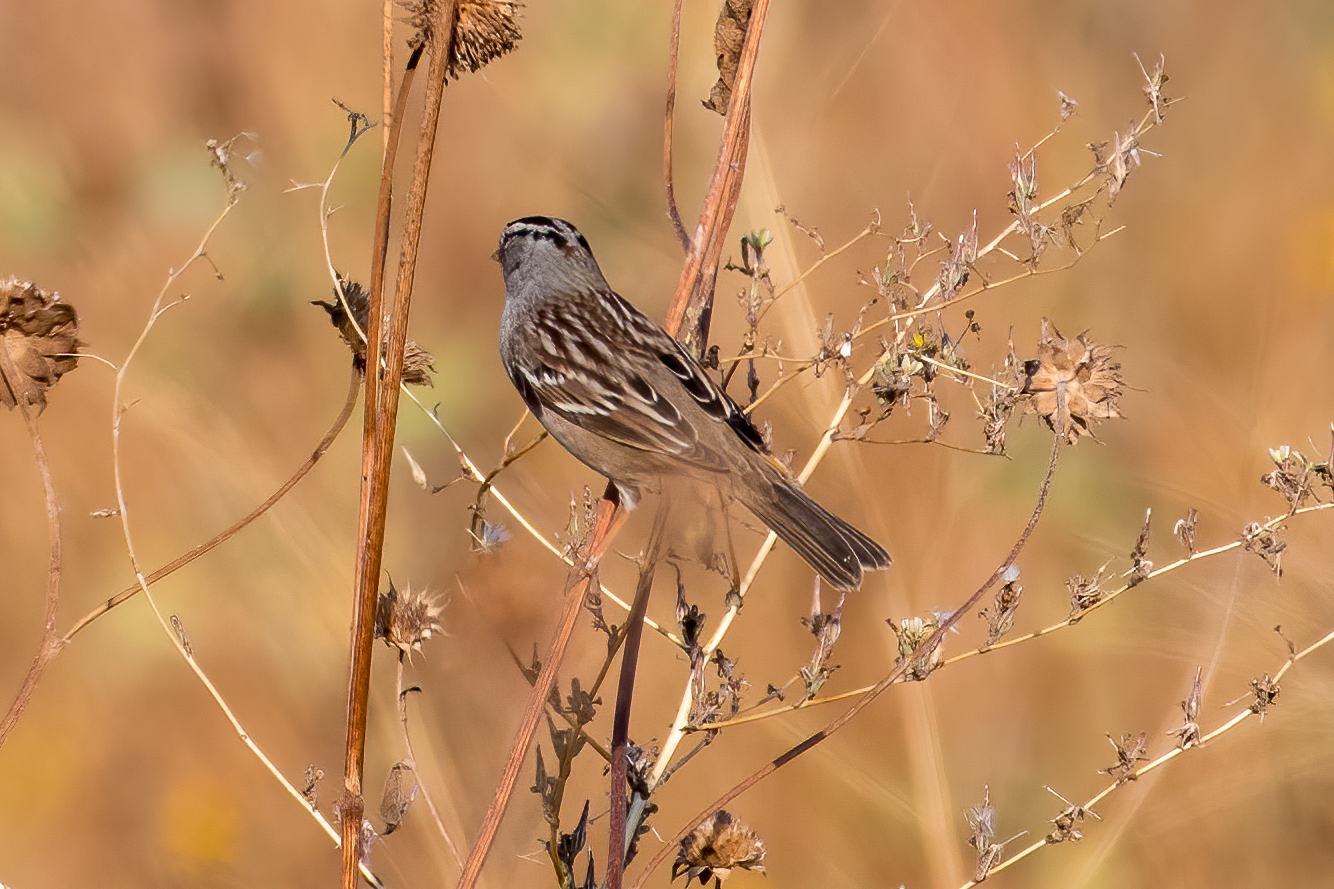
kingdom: Animalia
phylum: Chordata
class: Aves
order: Passeriformes
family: Passerellidae
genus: Zonotrichia
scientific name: Zonotrichia leucophrys
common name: White-crowned sparrow
